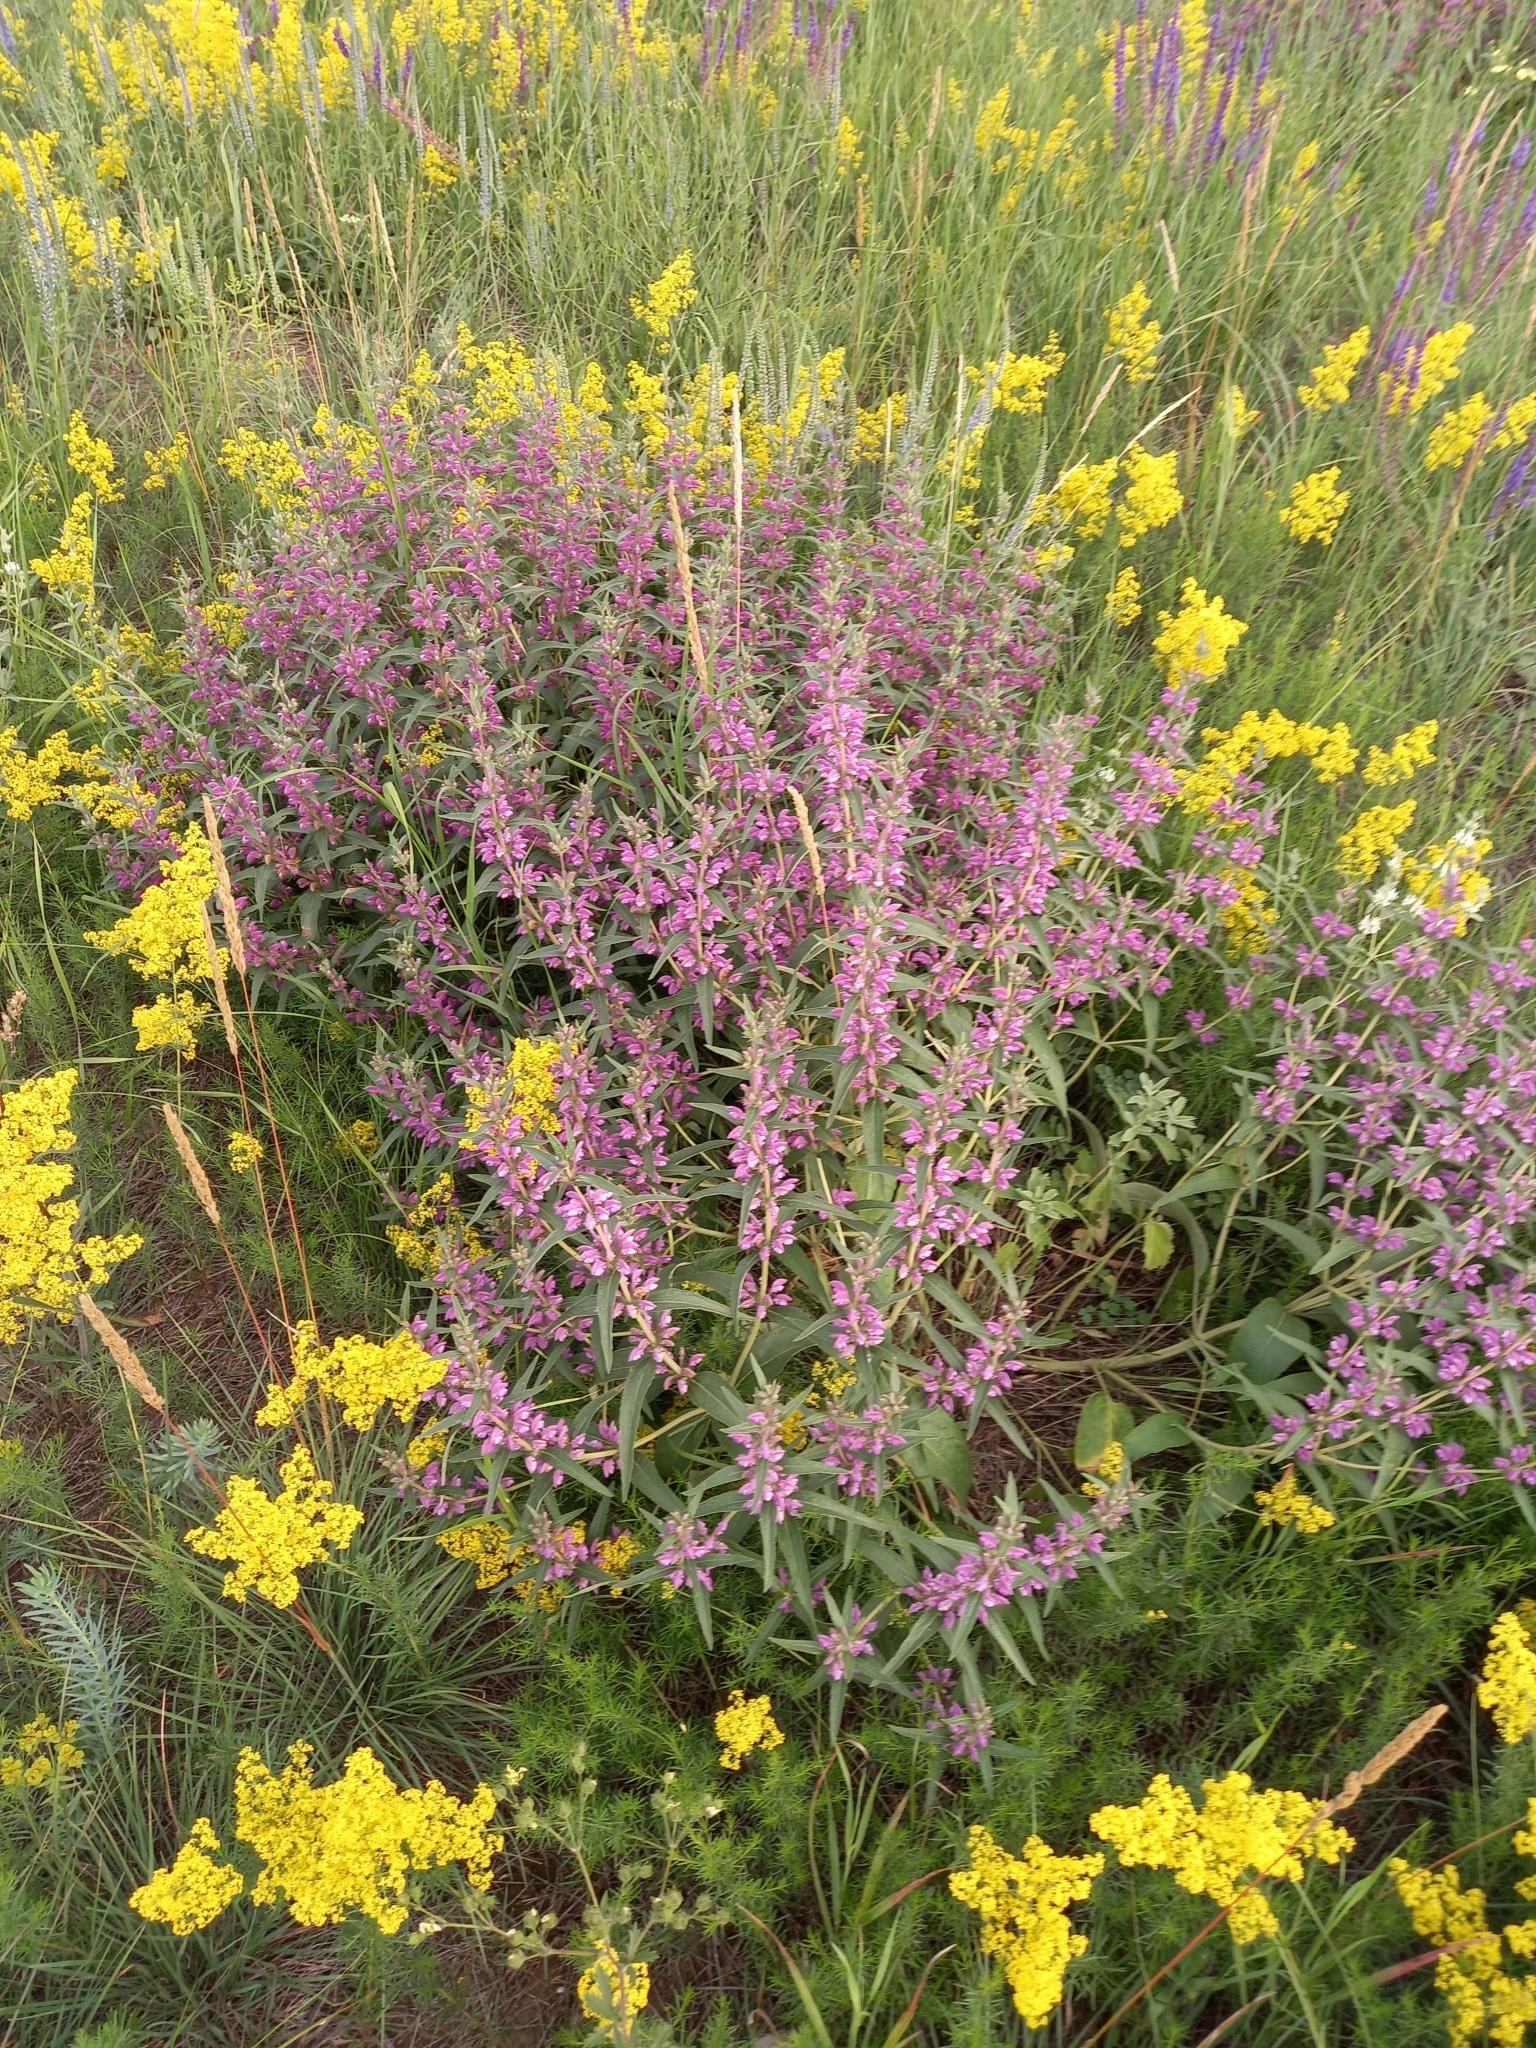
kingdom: Plantae
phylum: Tracheophyta
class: Magnoliopsida
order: Lamiales
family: Lamiaceae
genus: Phlomis
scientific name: Phlomis herba-venti
